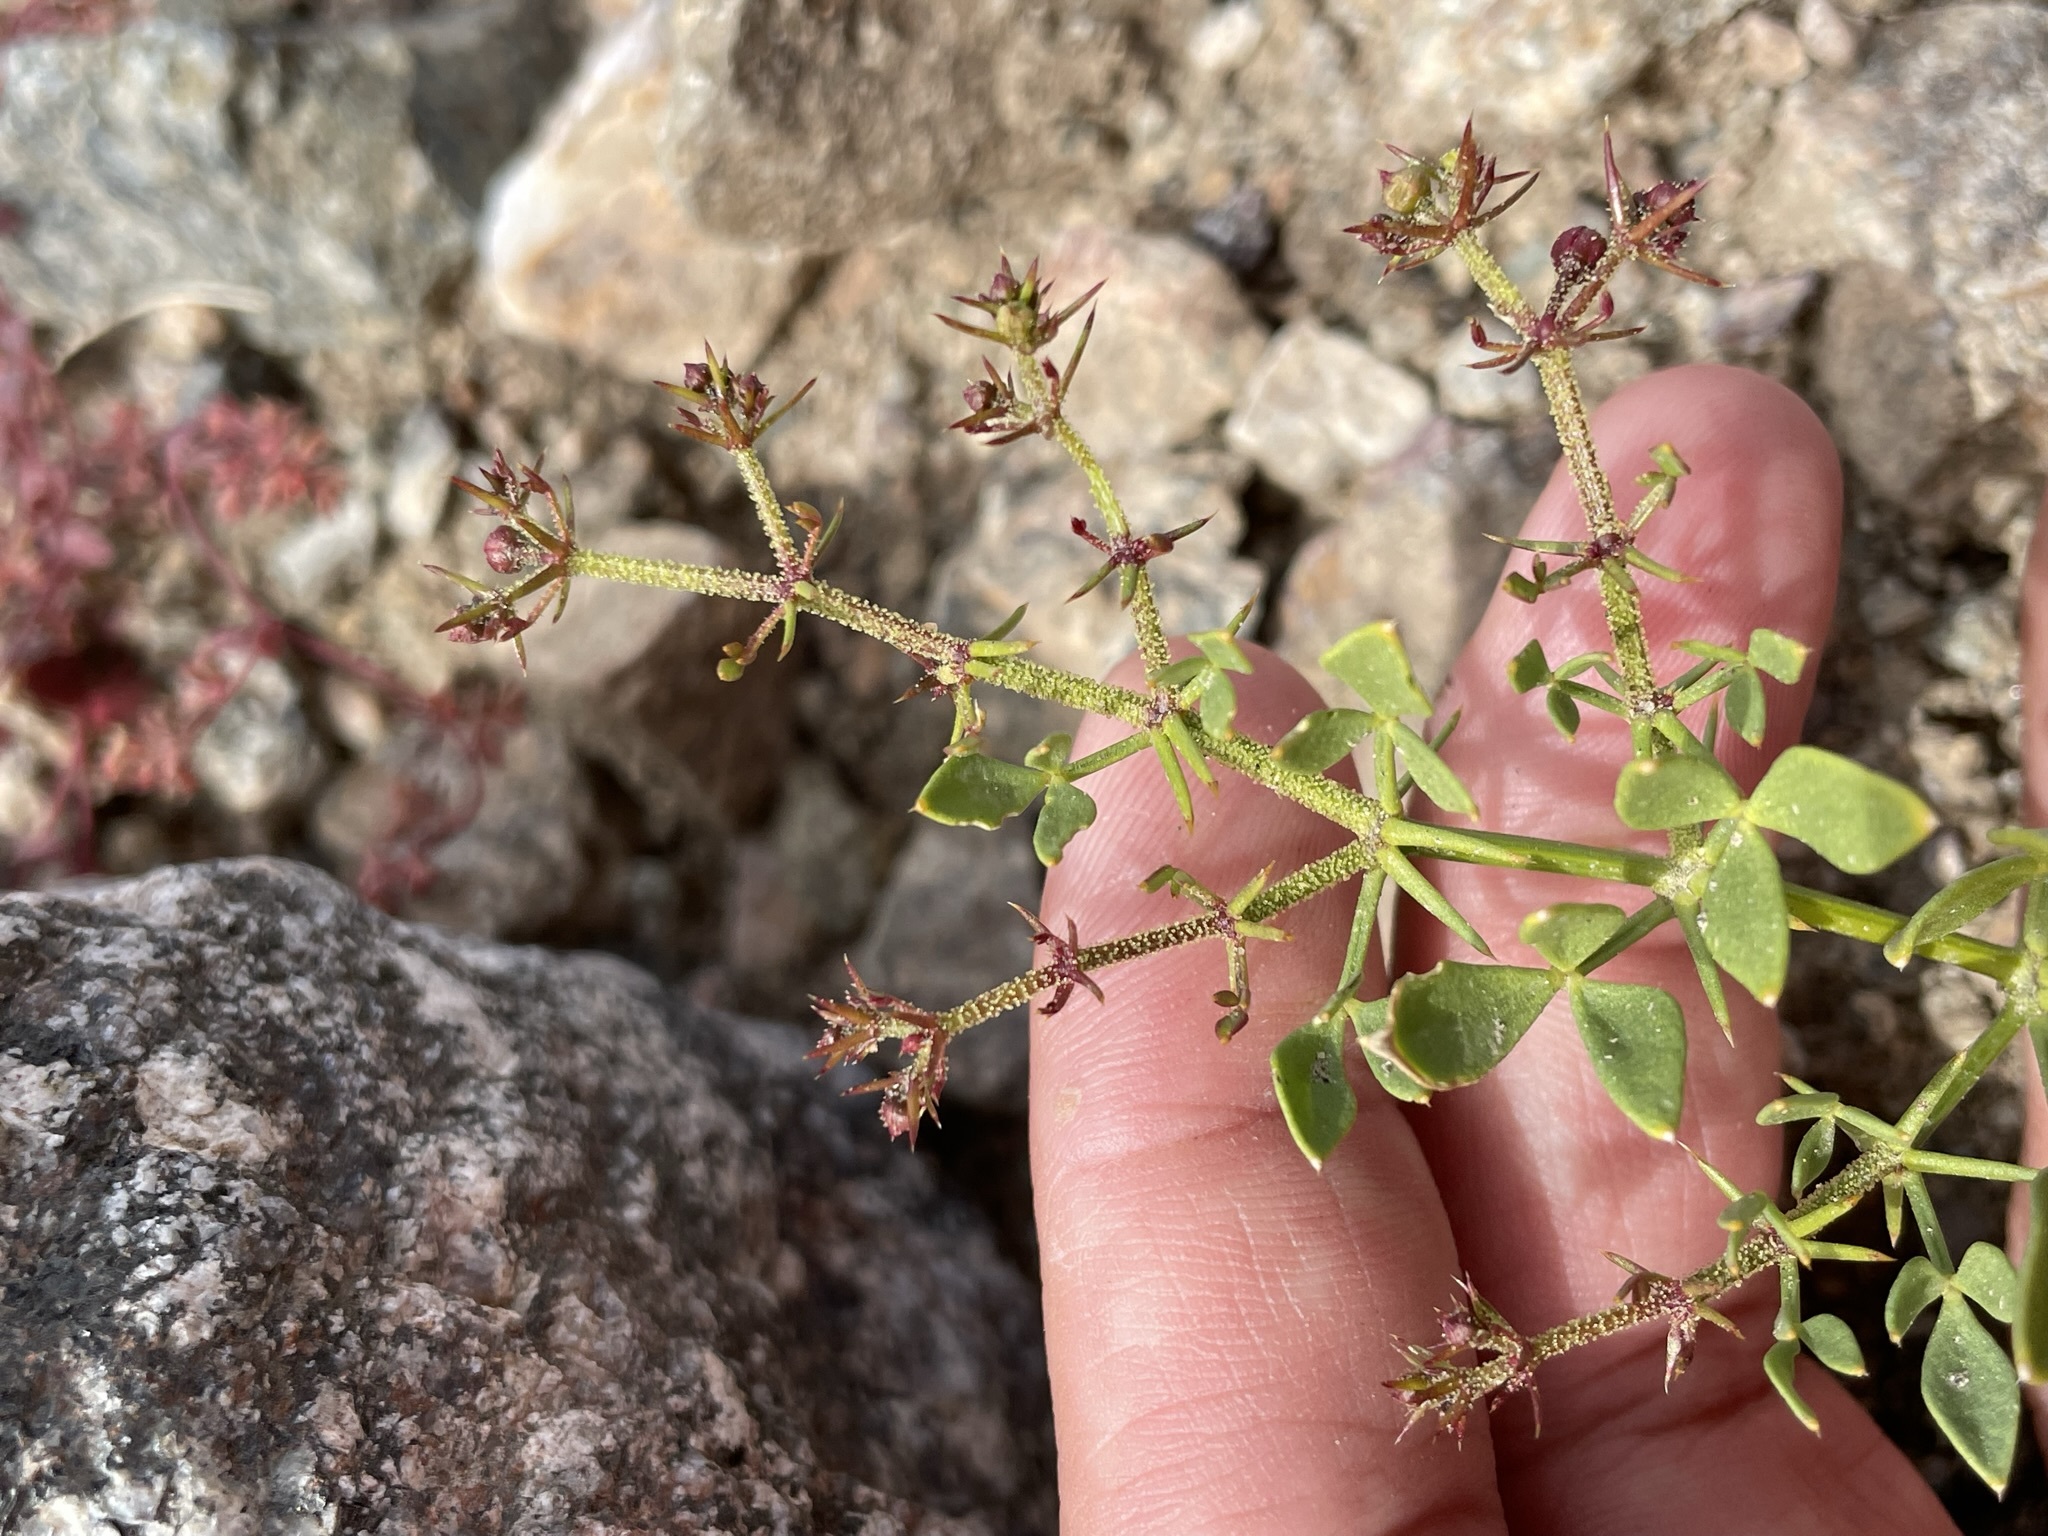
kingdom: Plantae
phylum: Tracheophyta
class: Magnoliopsida
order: Zygophyllales
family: Zygophyllaceae
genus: Fagonia
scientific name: Fagonia pachyacantha
